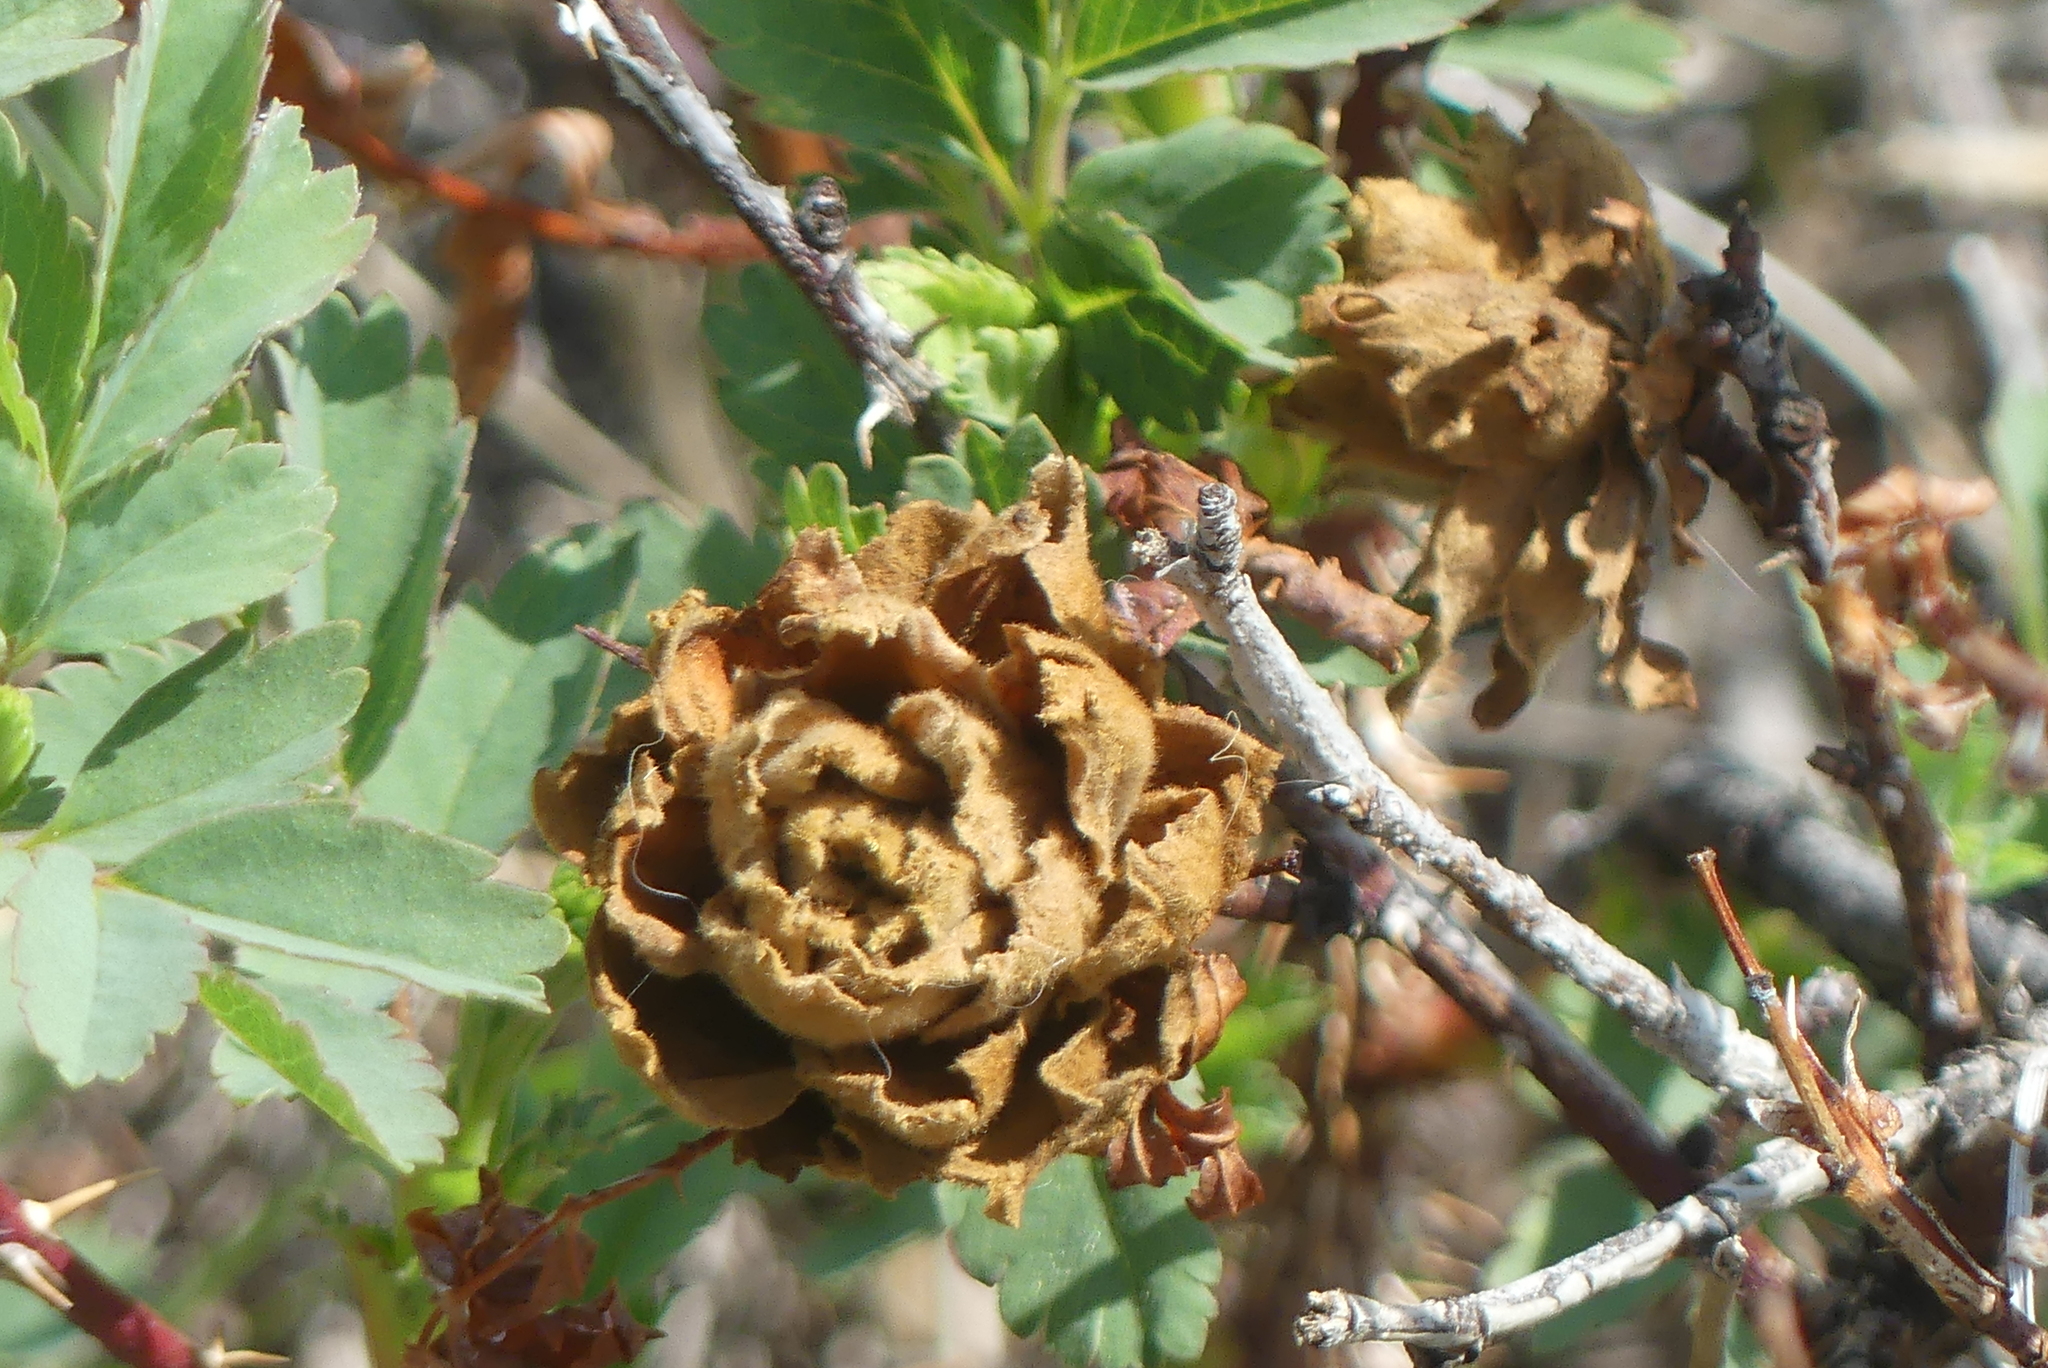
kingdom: Animalia
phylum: Arthropoda
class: Insecta
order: Diptera
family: Cecidomyiidae
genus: Rabdophaga
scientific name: Rabdophaga rosacea
